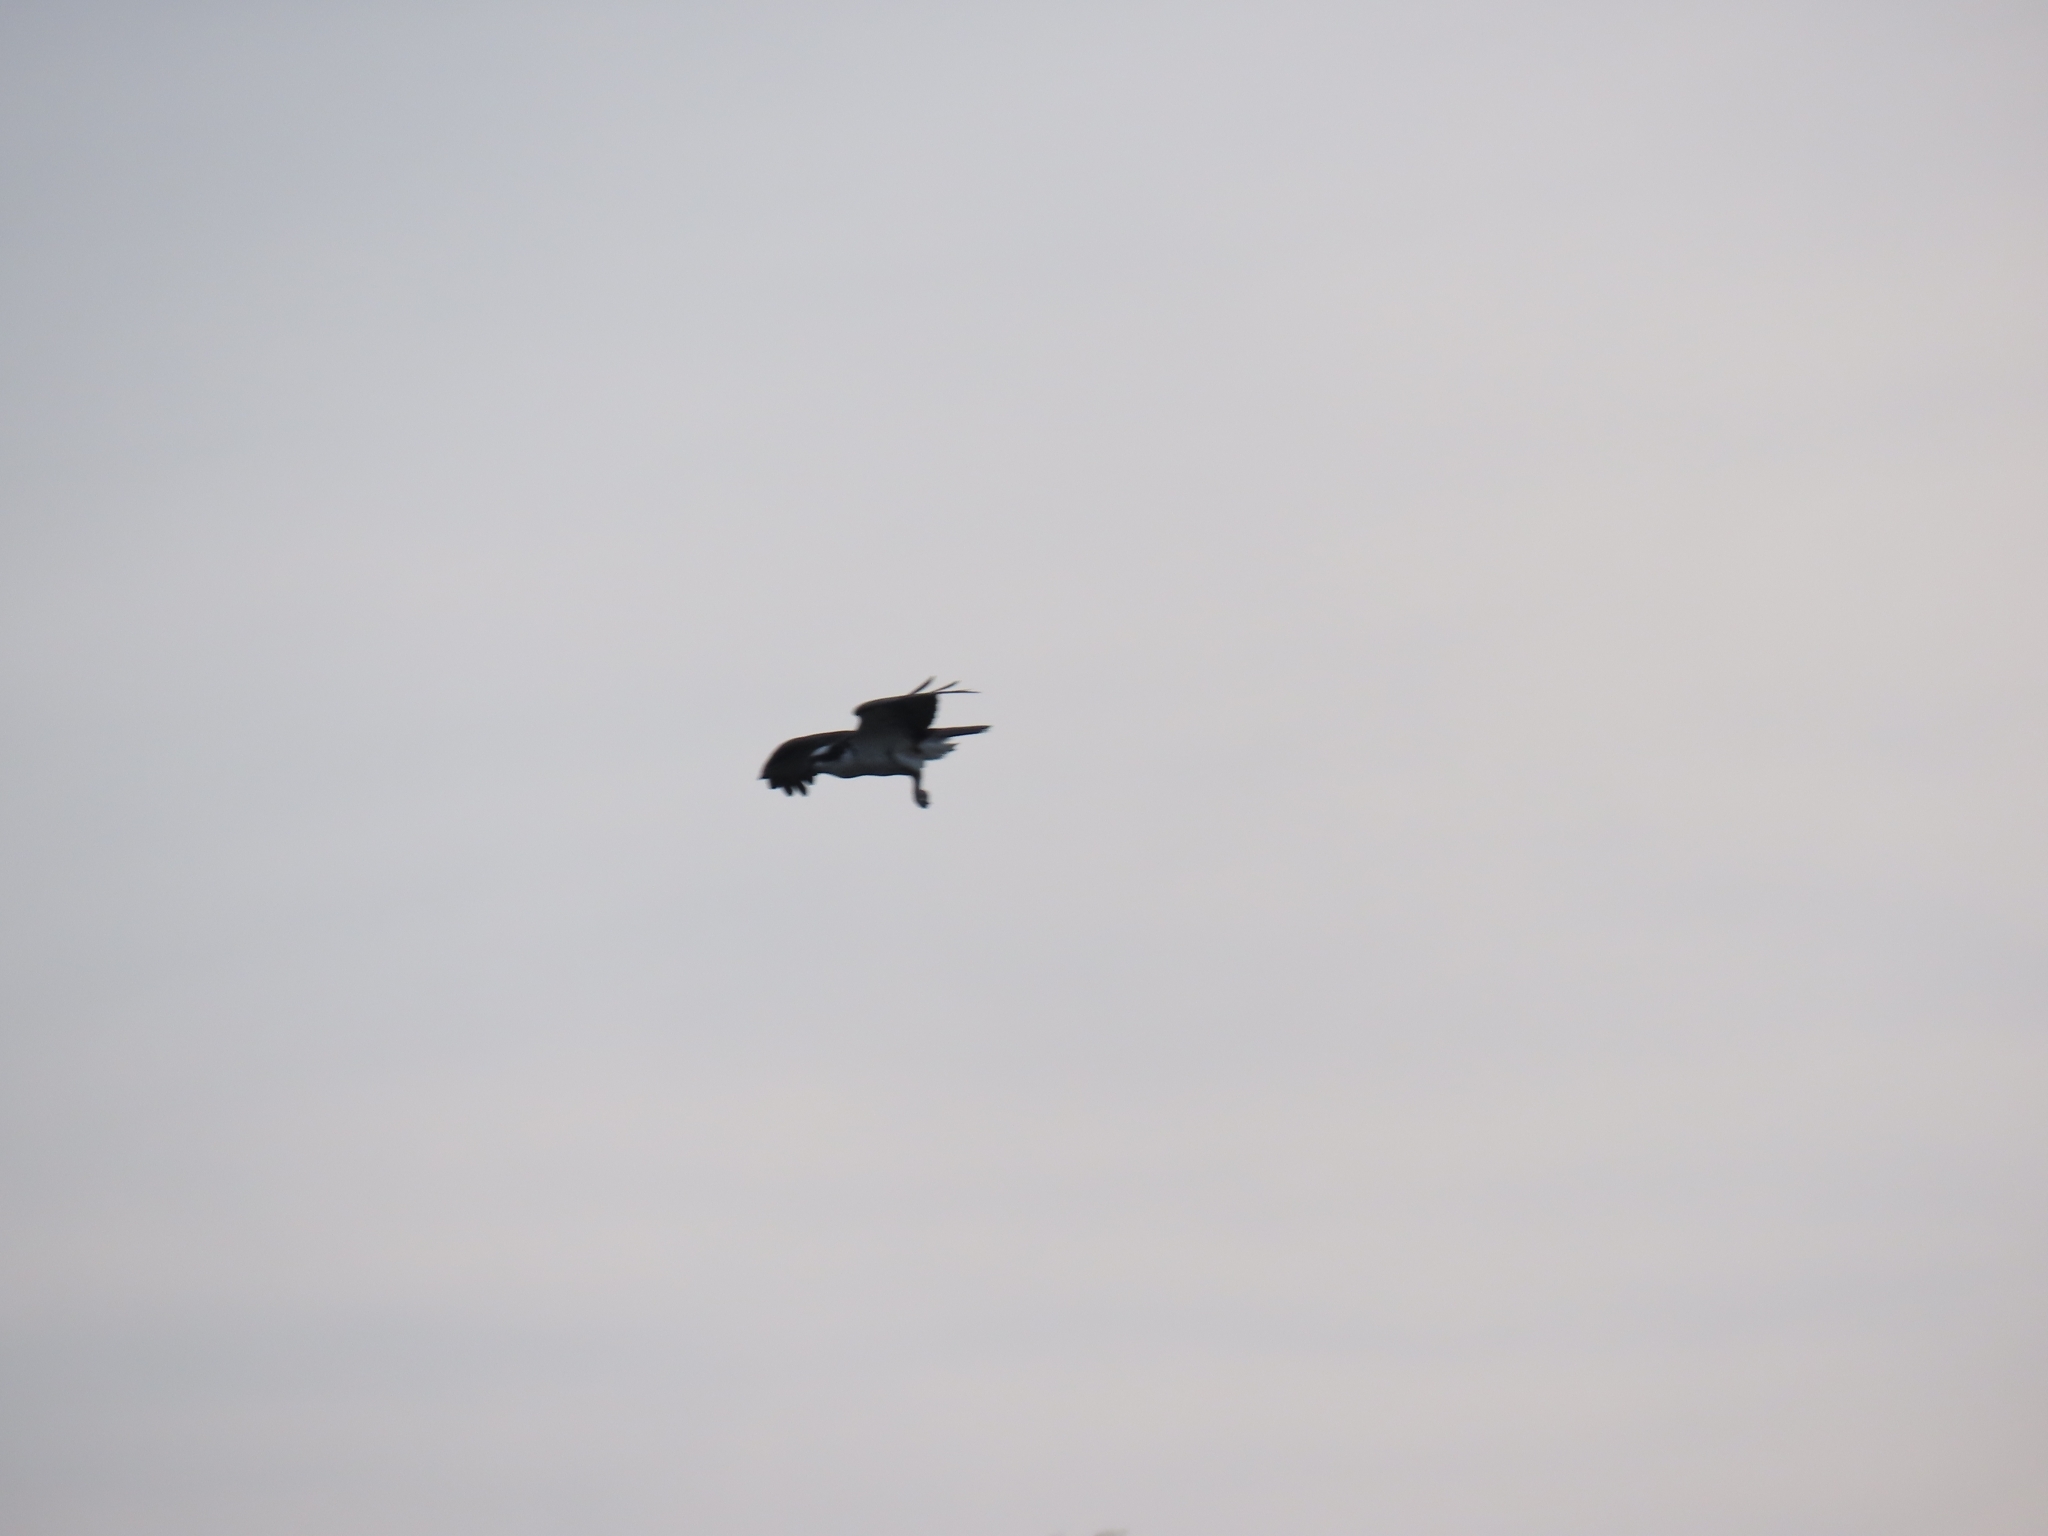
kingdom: Animalia
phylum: Chordata
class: Aves
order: Accipitriformes
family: Pandionidae
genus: Pandion
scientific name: Pandion haliaetus
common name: Osprey
